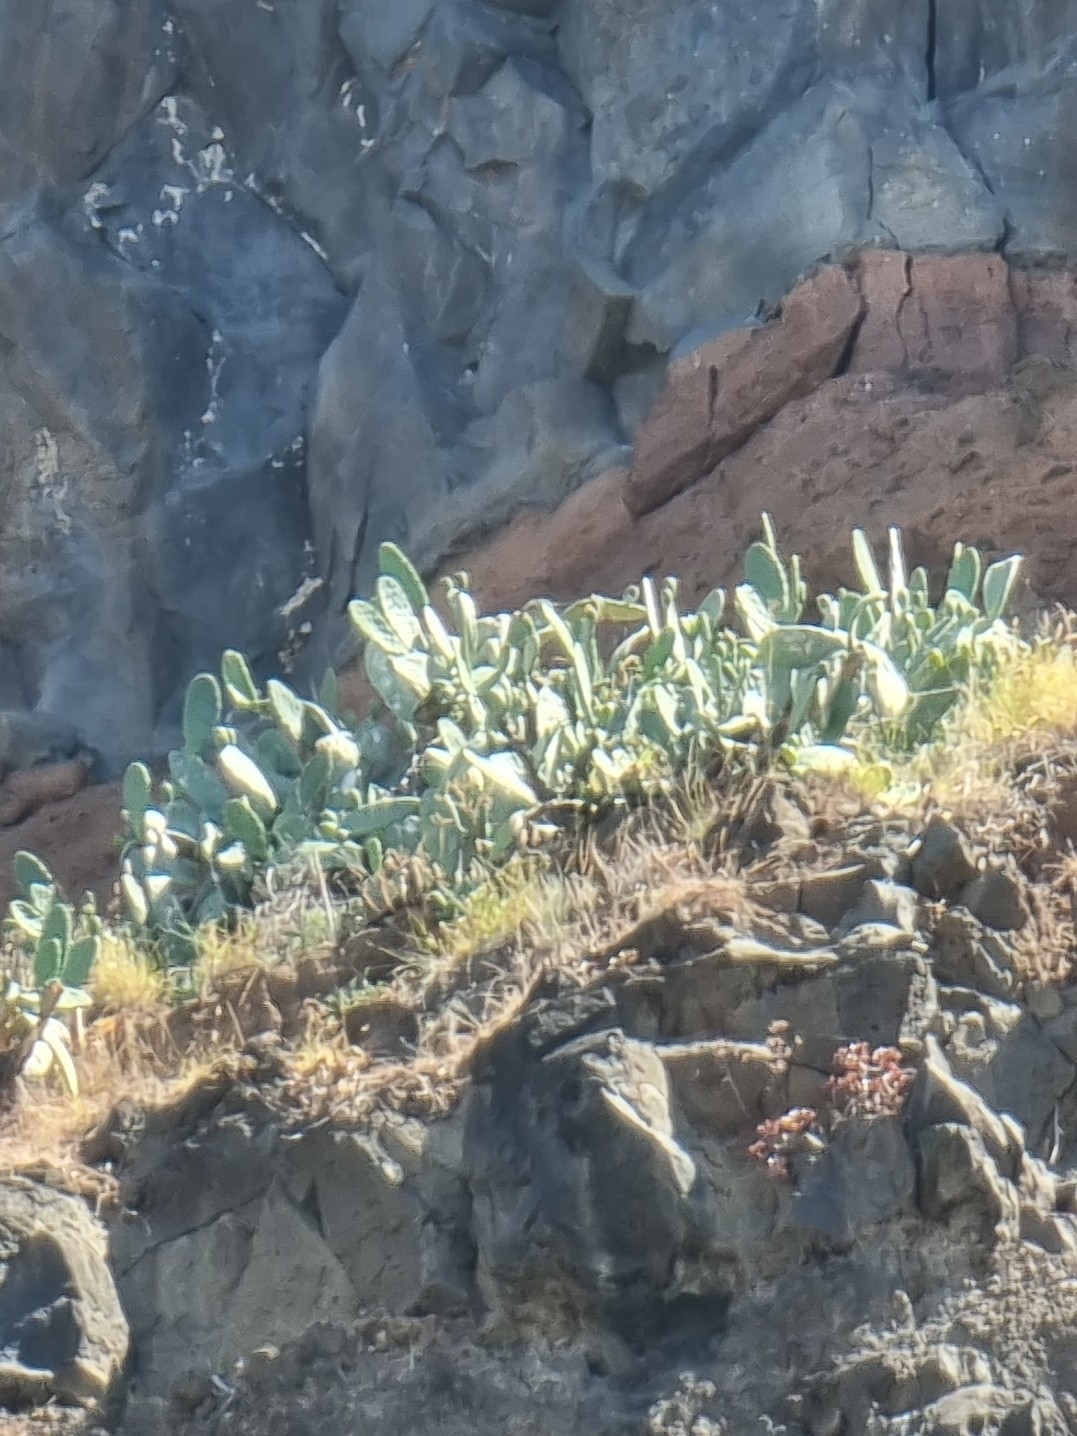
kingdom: Plantae
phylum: Tracheophyta
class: Magnoliopsida
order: Caryophyllales
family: Cactaceae
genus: Opuntia
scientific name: Opuntia ficus-indica
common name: Barbary fig
